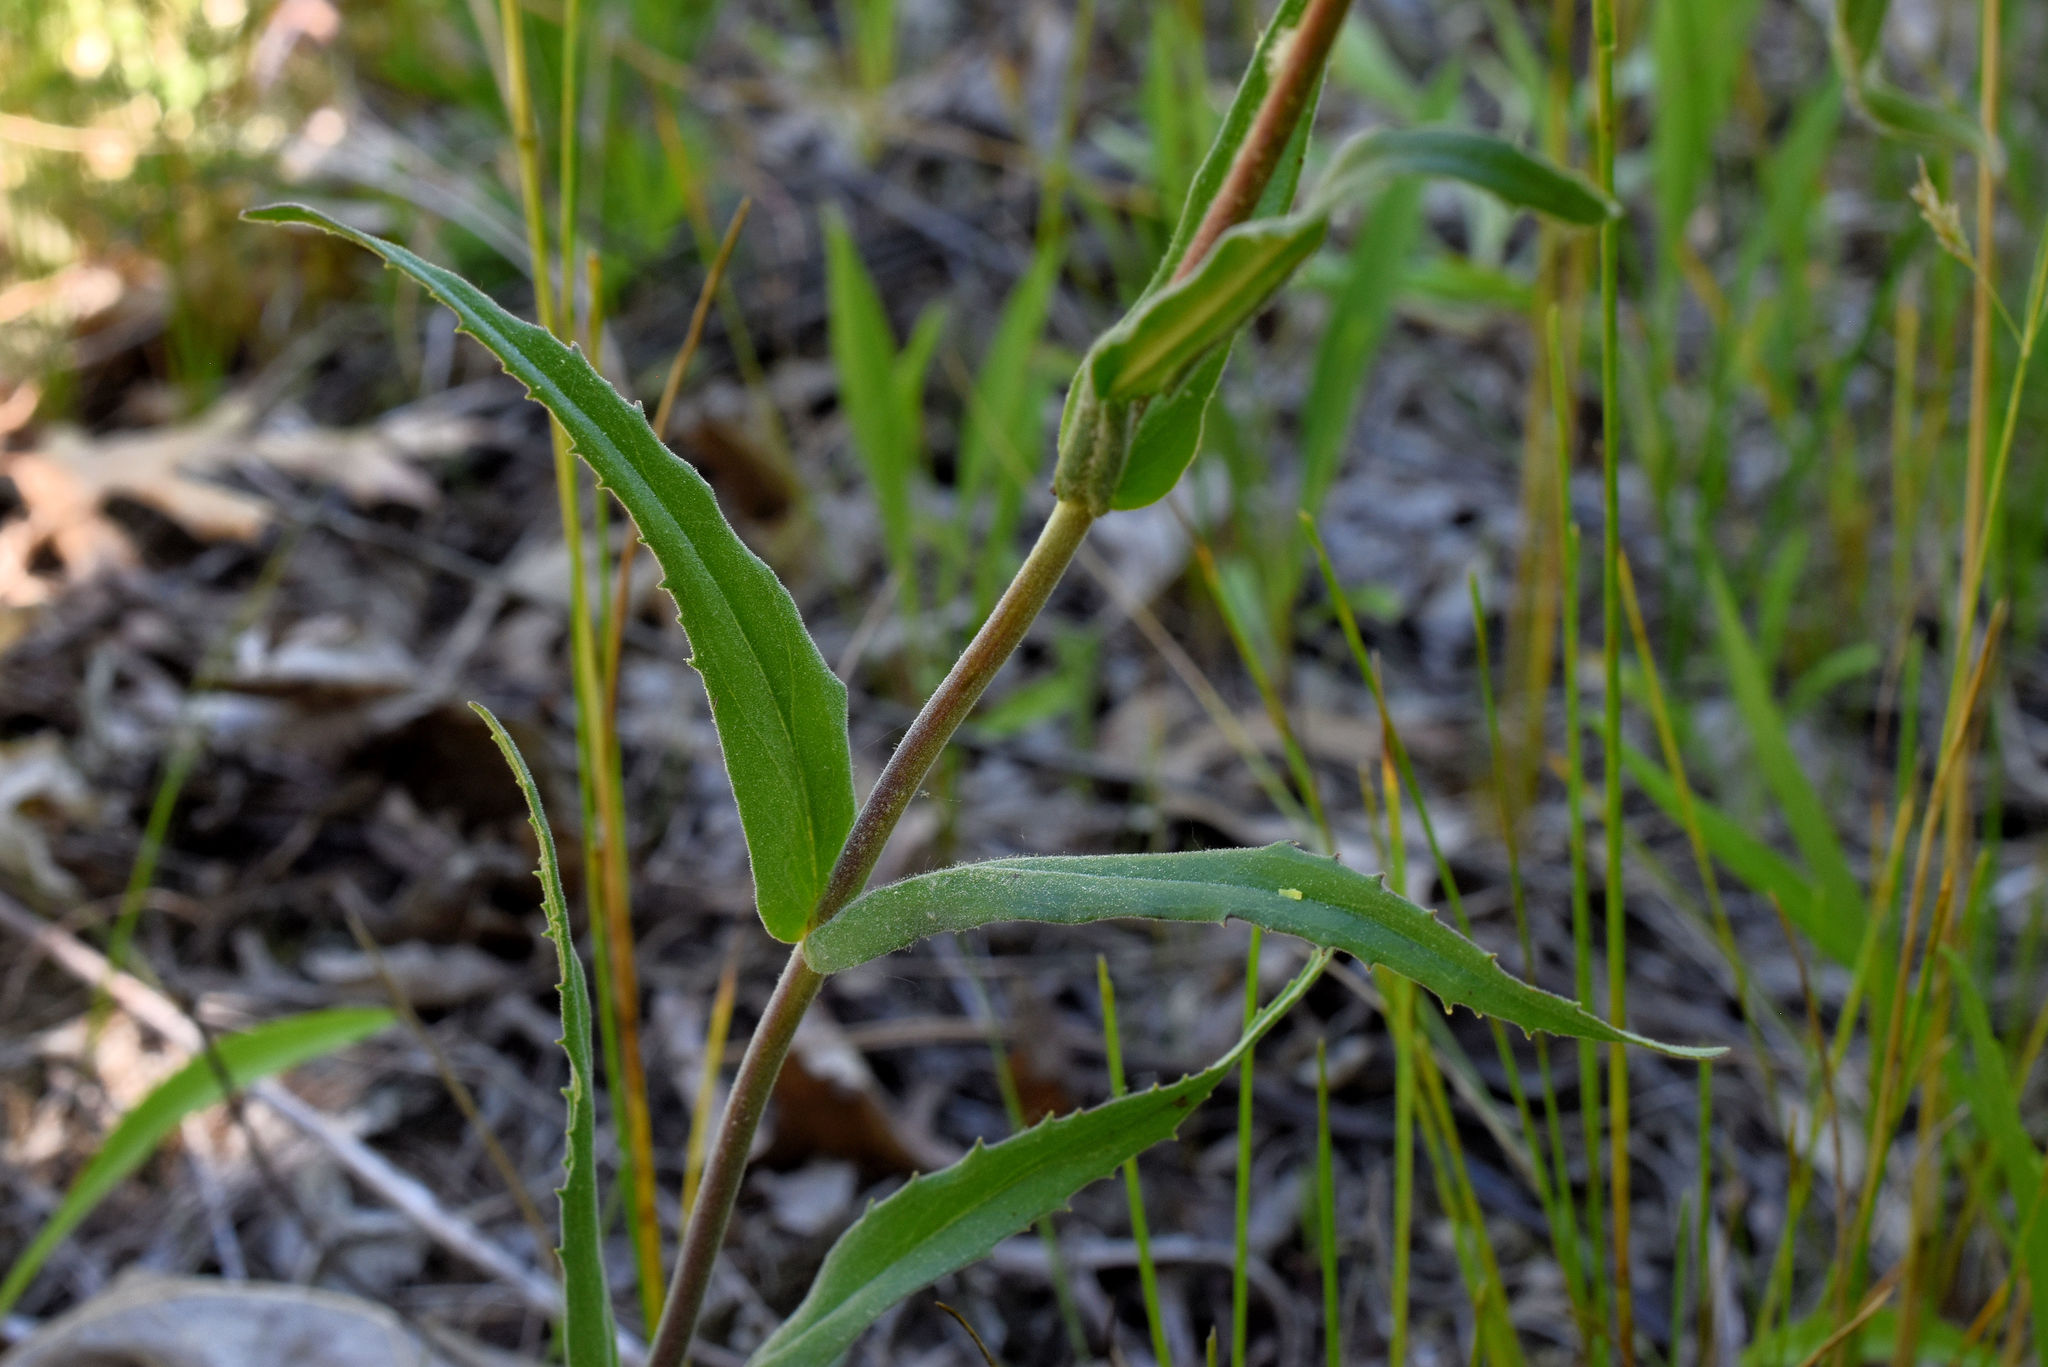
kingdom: Plantae
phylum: Tracheophyta
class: Magnoliopsida
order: Lamiales
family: Plantaginaceae
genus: Penstemon
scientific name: Penstemon gracilis
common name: Slender beardtongue
